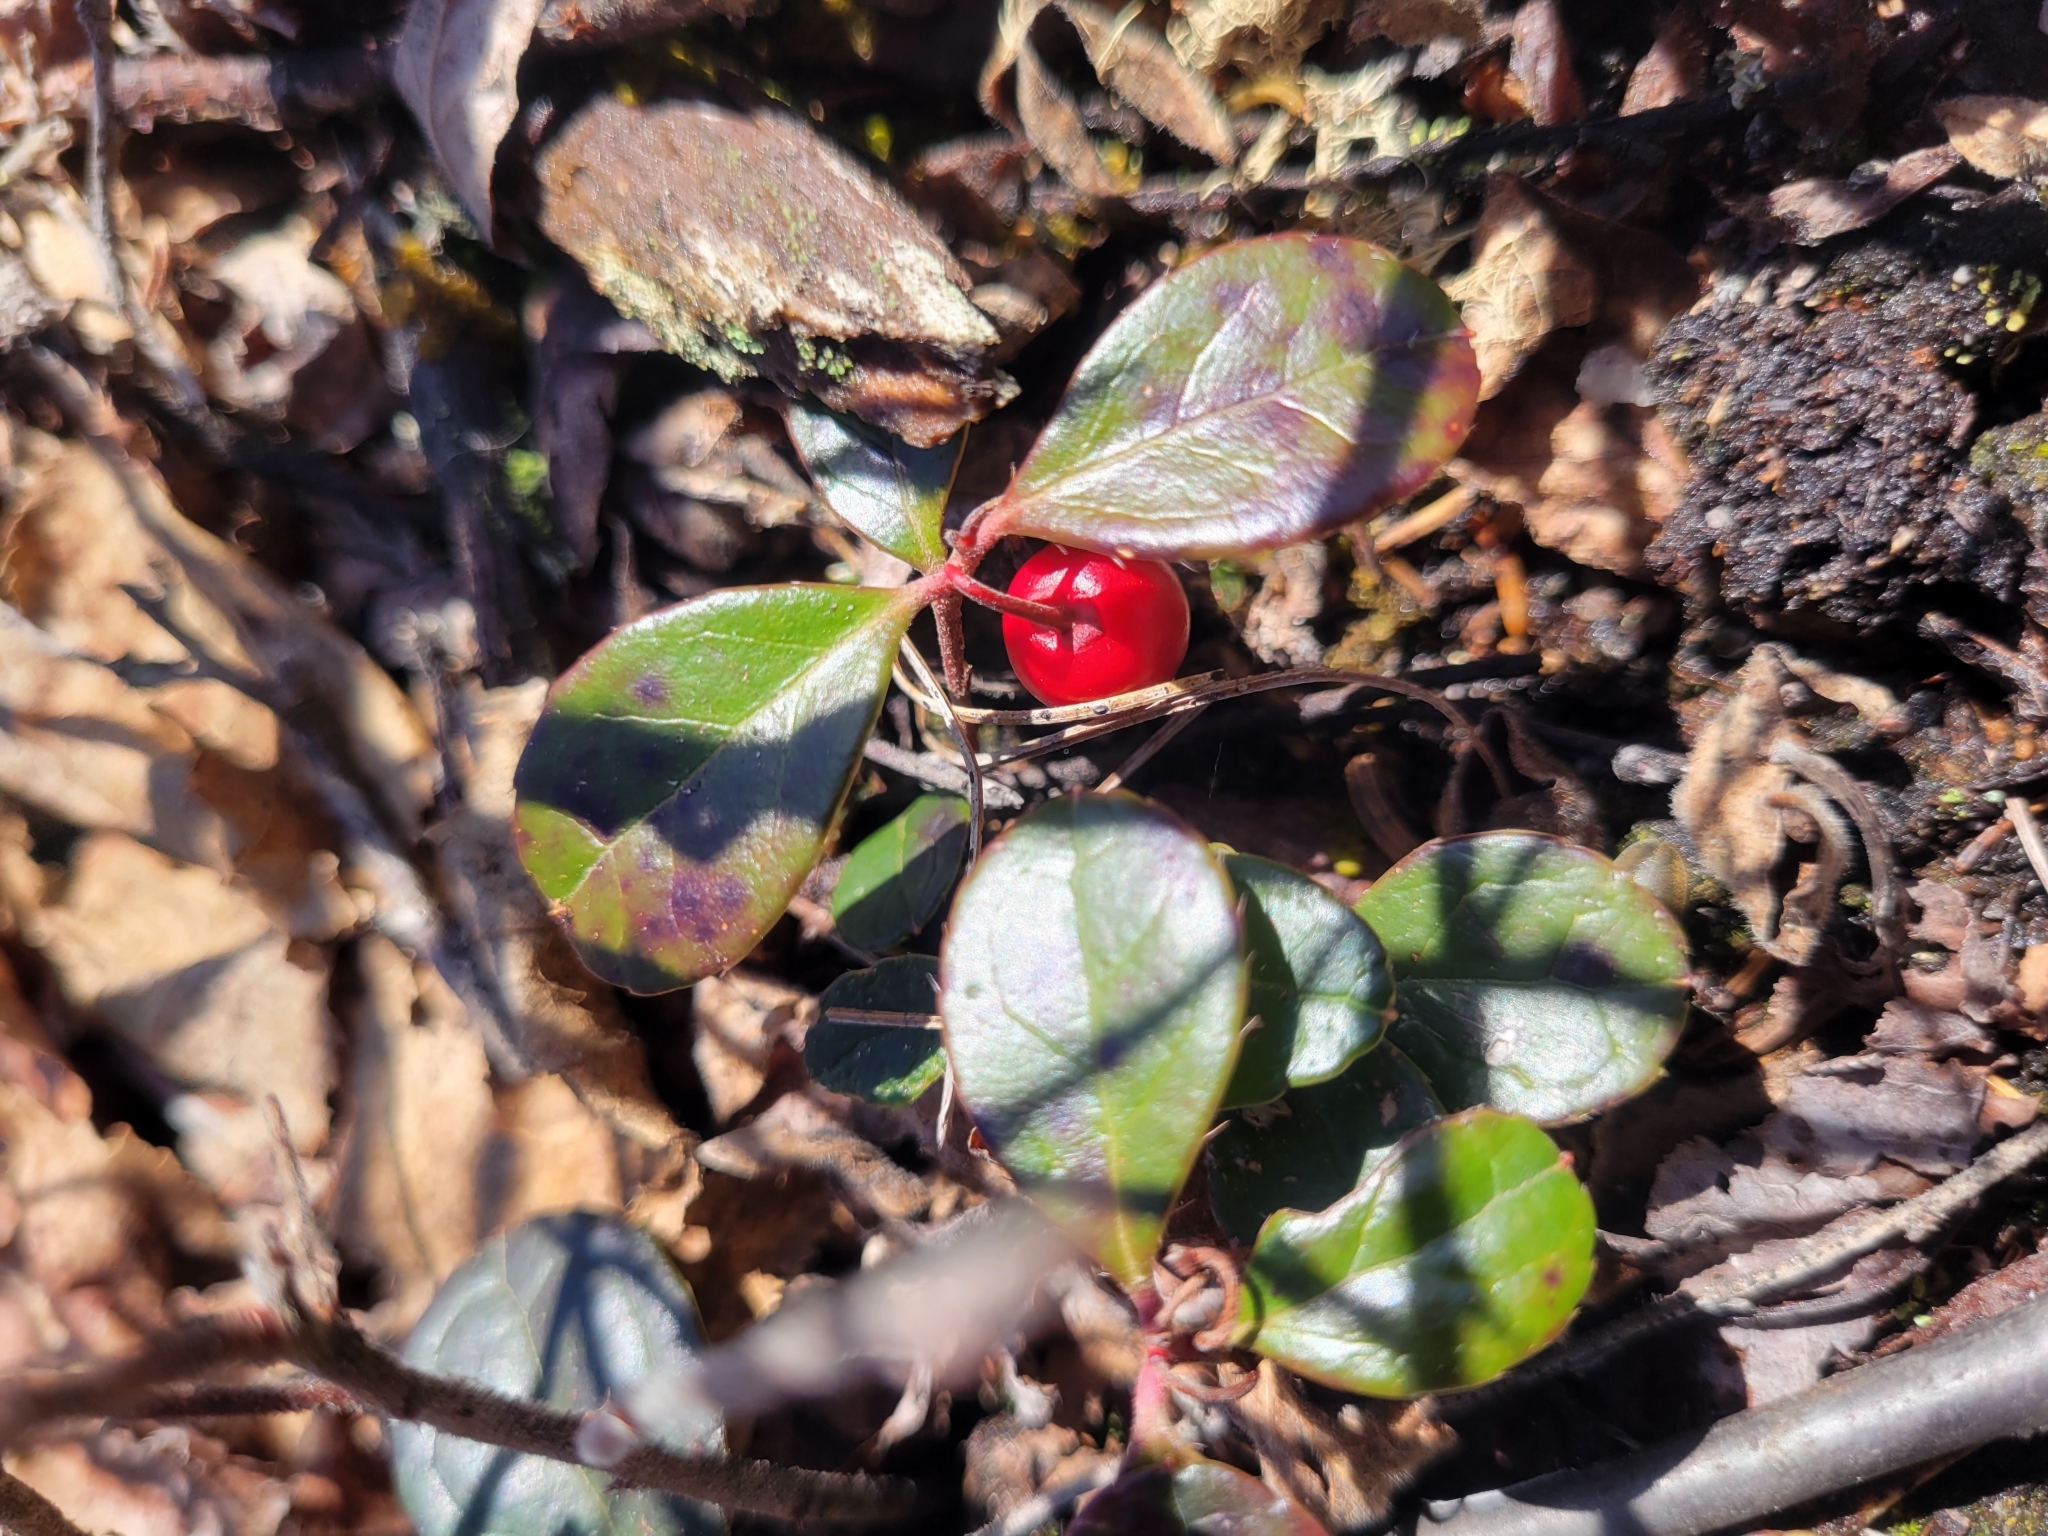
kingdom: Plantae
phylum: Tracheophyta
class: Magnoliopsida
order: Ericales
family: Ericaceae
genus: Gaultheria
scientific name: Gaultheria procumbens
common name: Checkerberry
